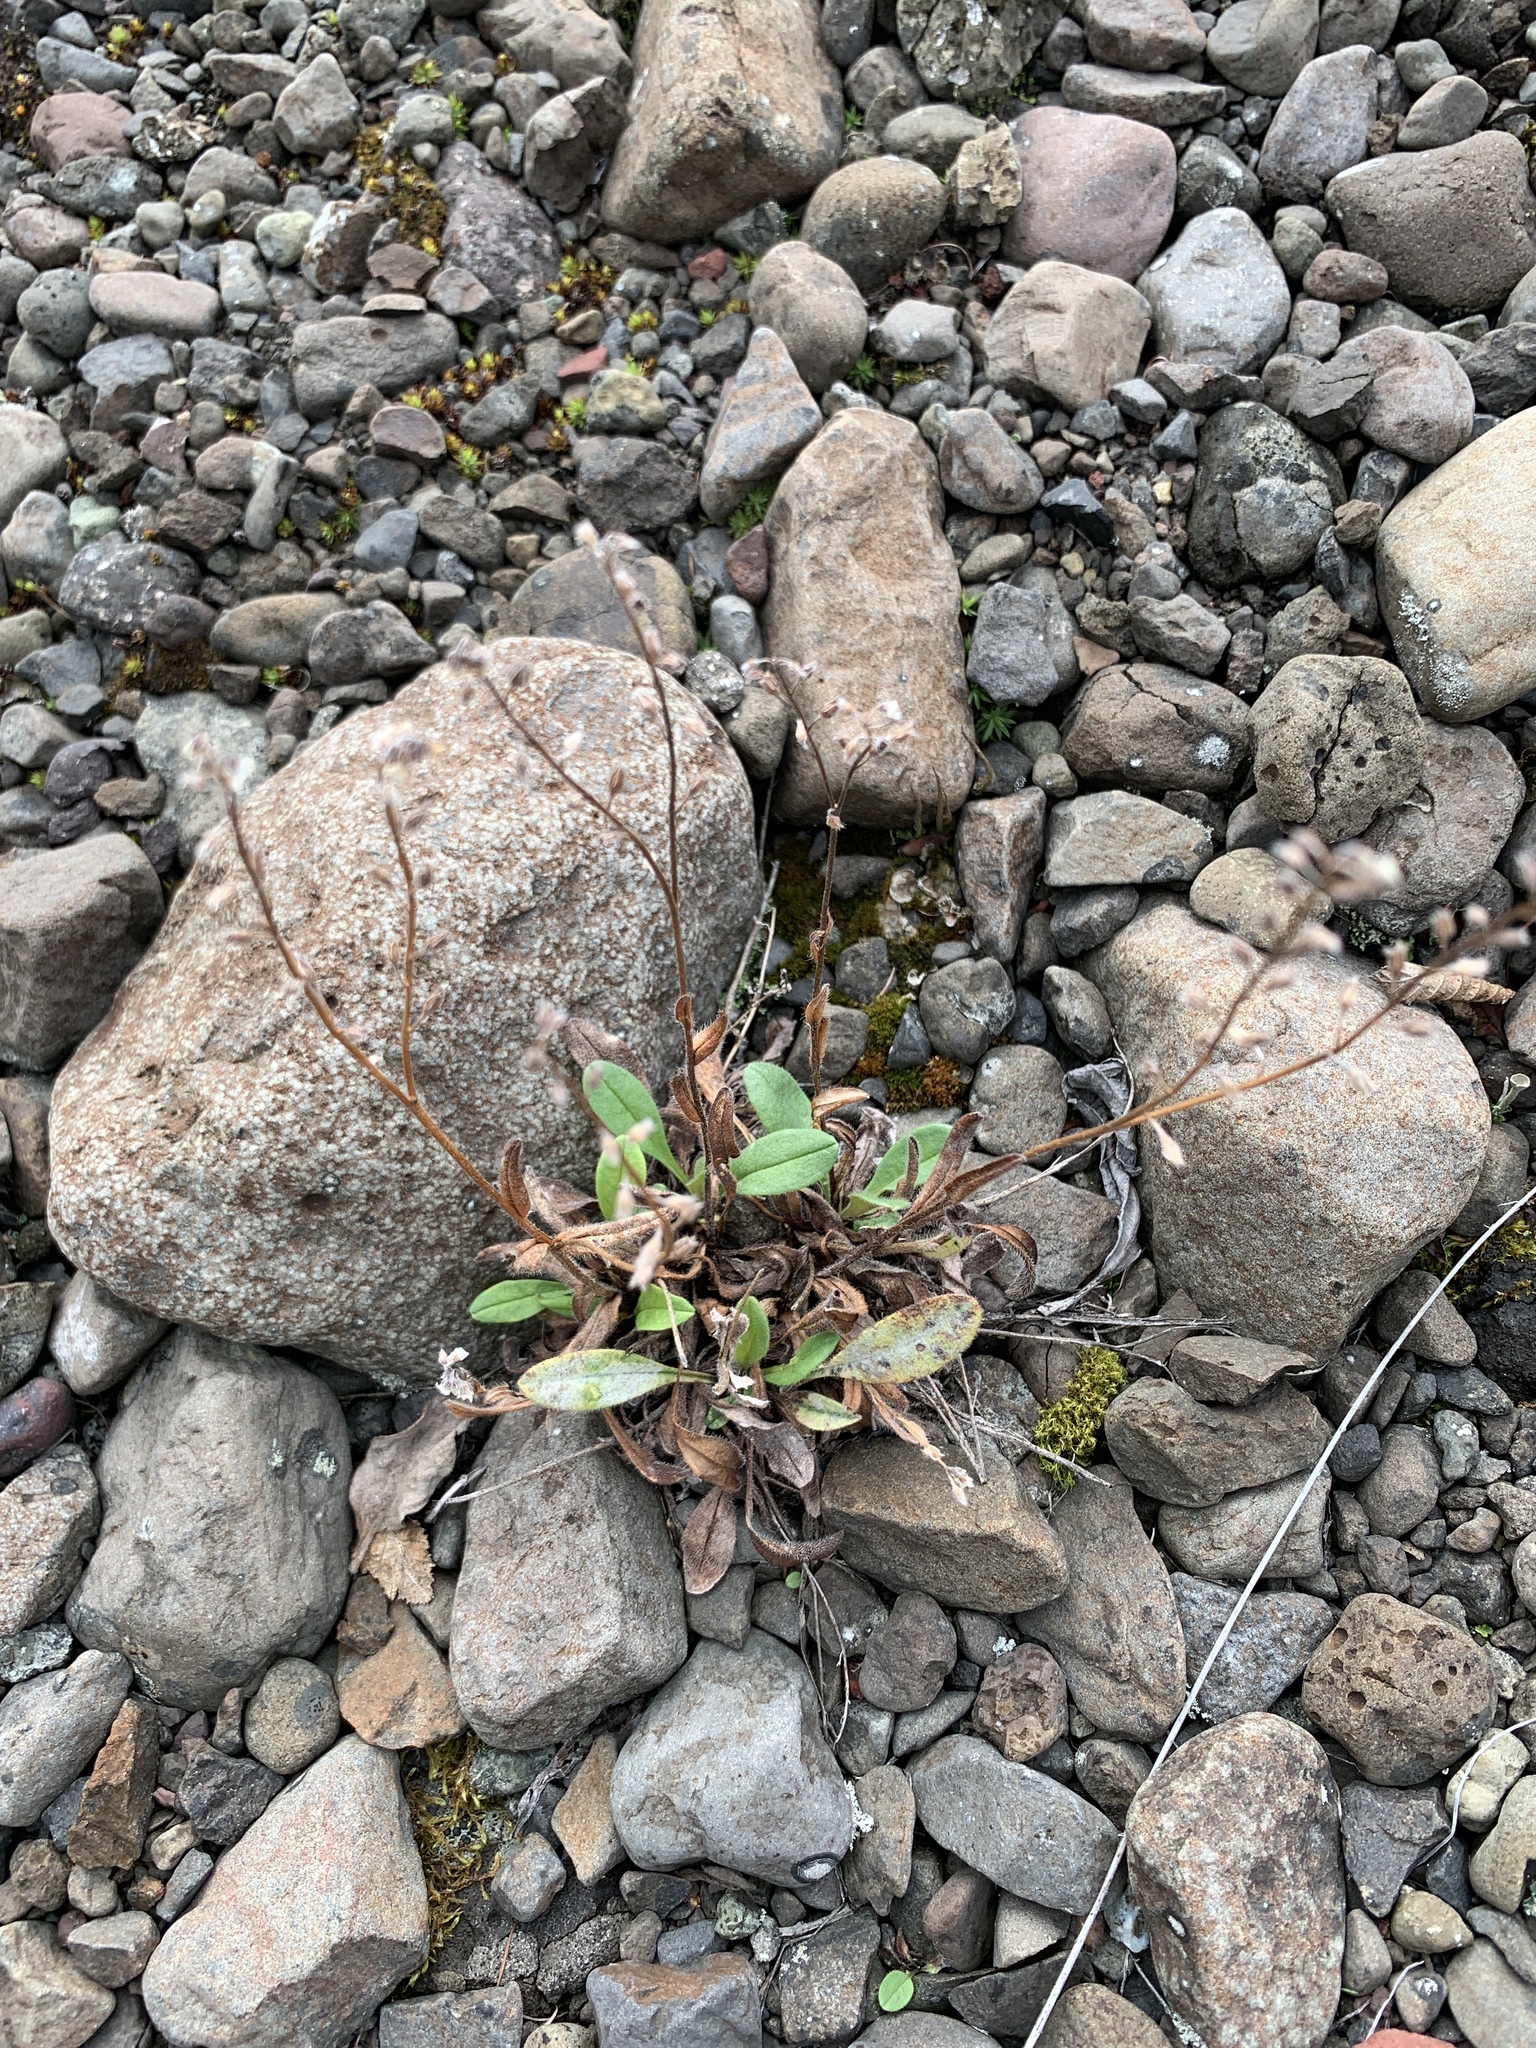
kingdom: Plantae
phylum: Tracheophyta
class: Magnoliopsida
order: Boraginales
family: Boraginaceae
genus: Myosotis
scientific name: Myosotis asiatica
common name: Asian forget-me-not
